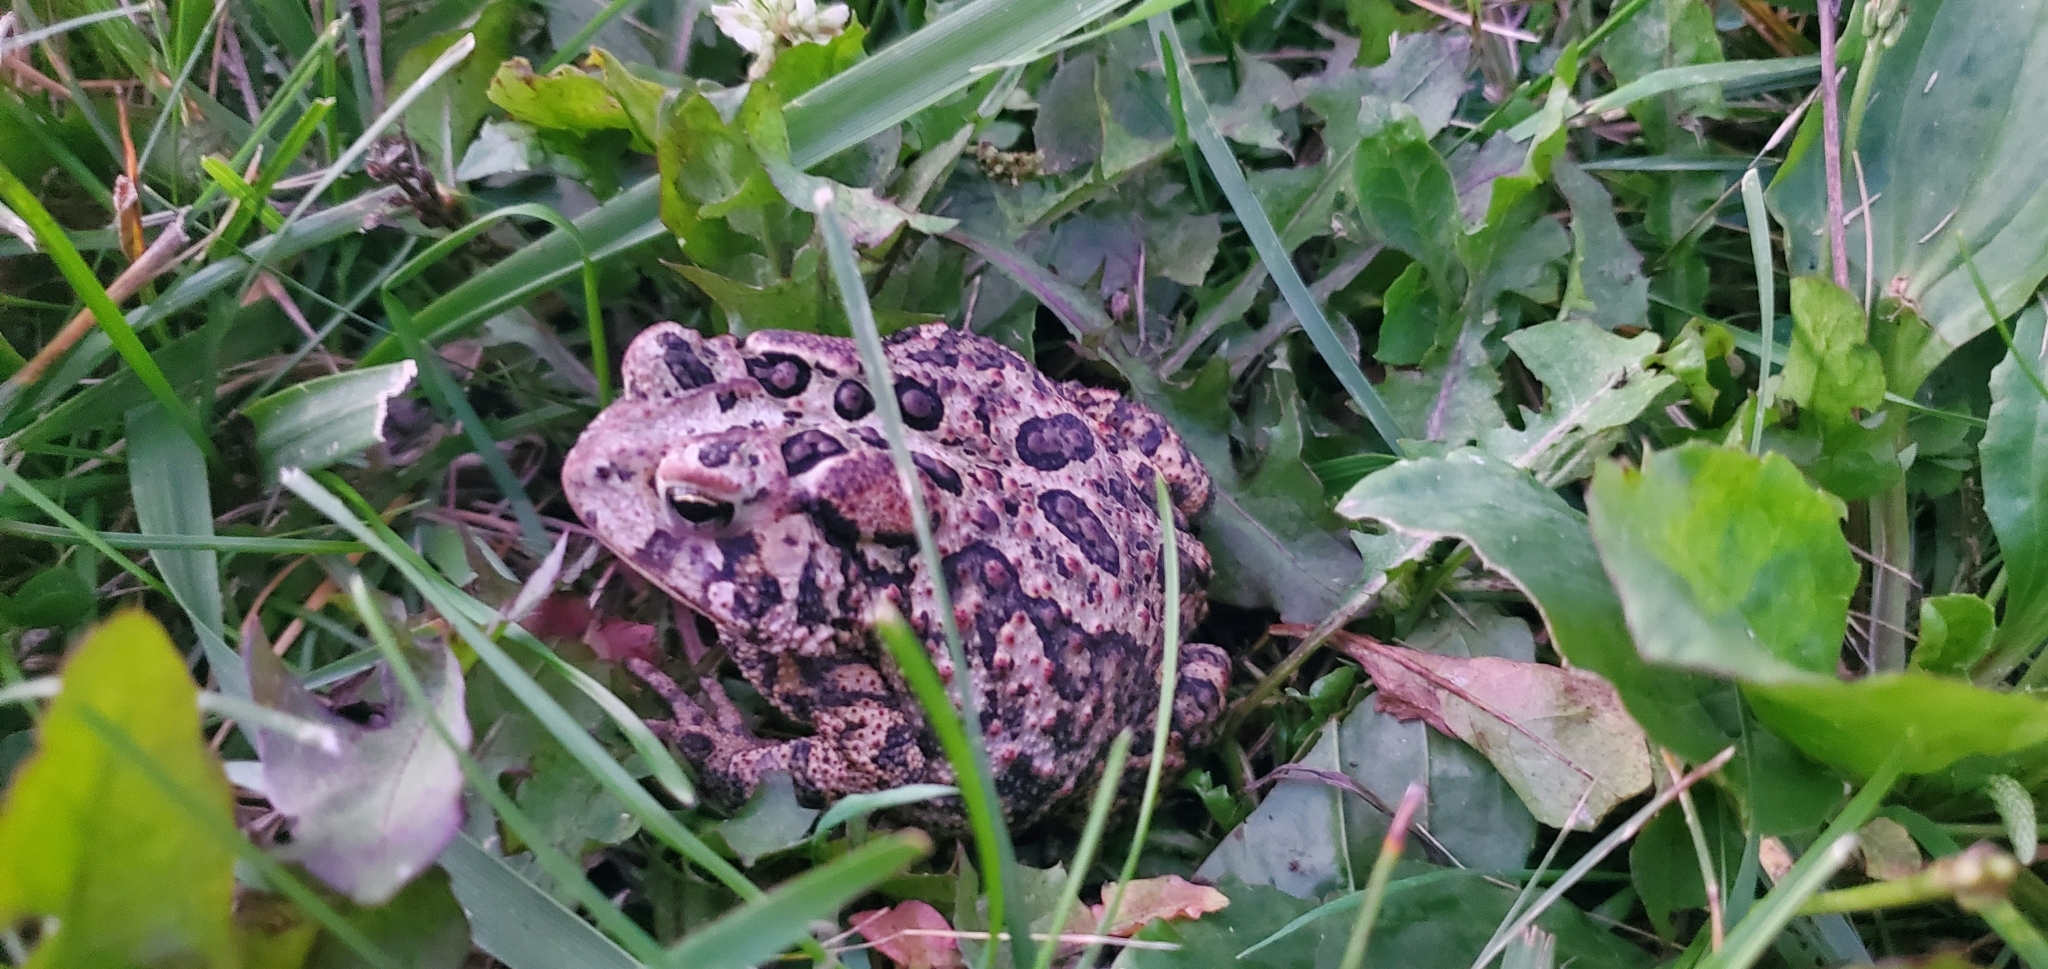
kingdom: Animalia
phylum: Chordata
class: Amphibia
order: Anura
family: Bufonidae
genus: Anaxyrus
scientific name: Anaxyrus americanus
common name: American toad
